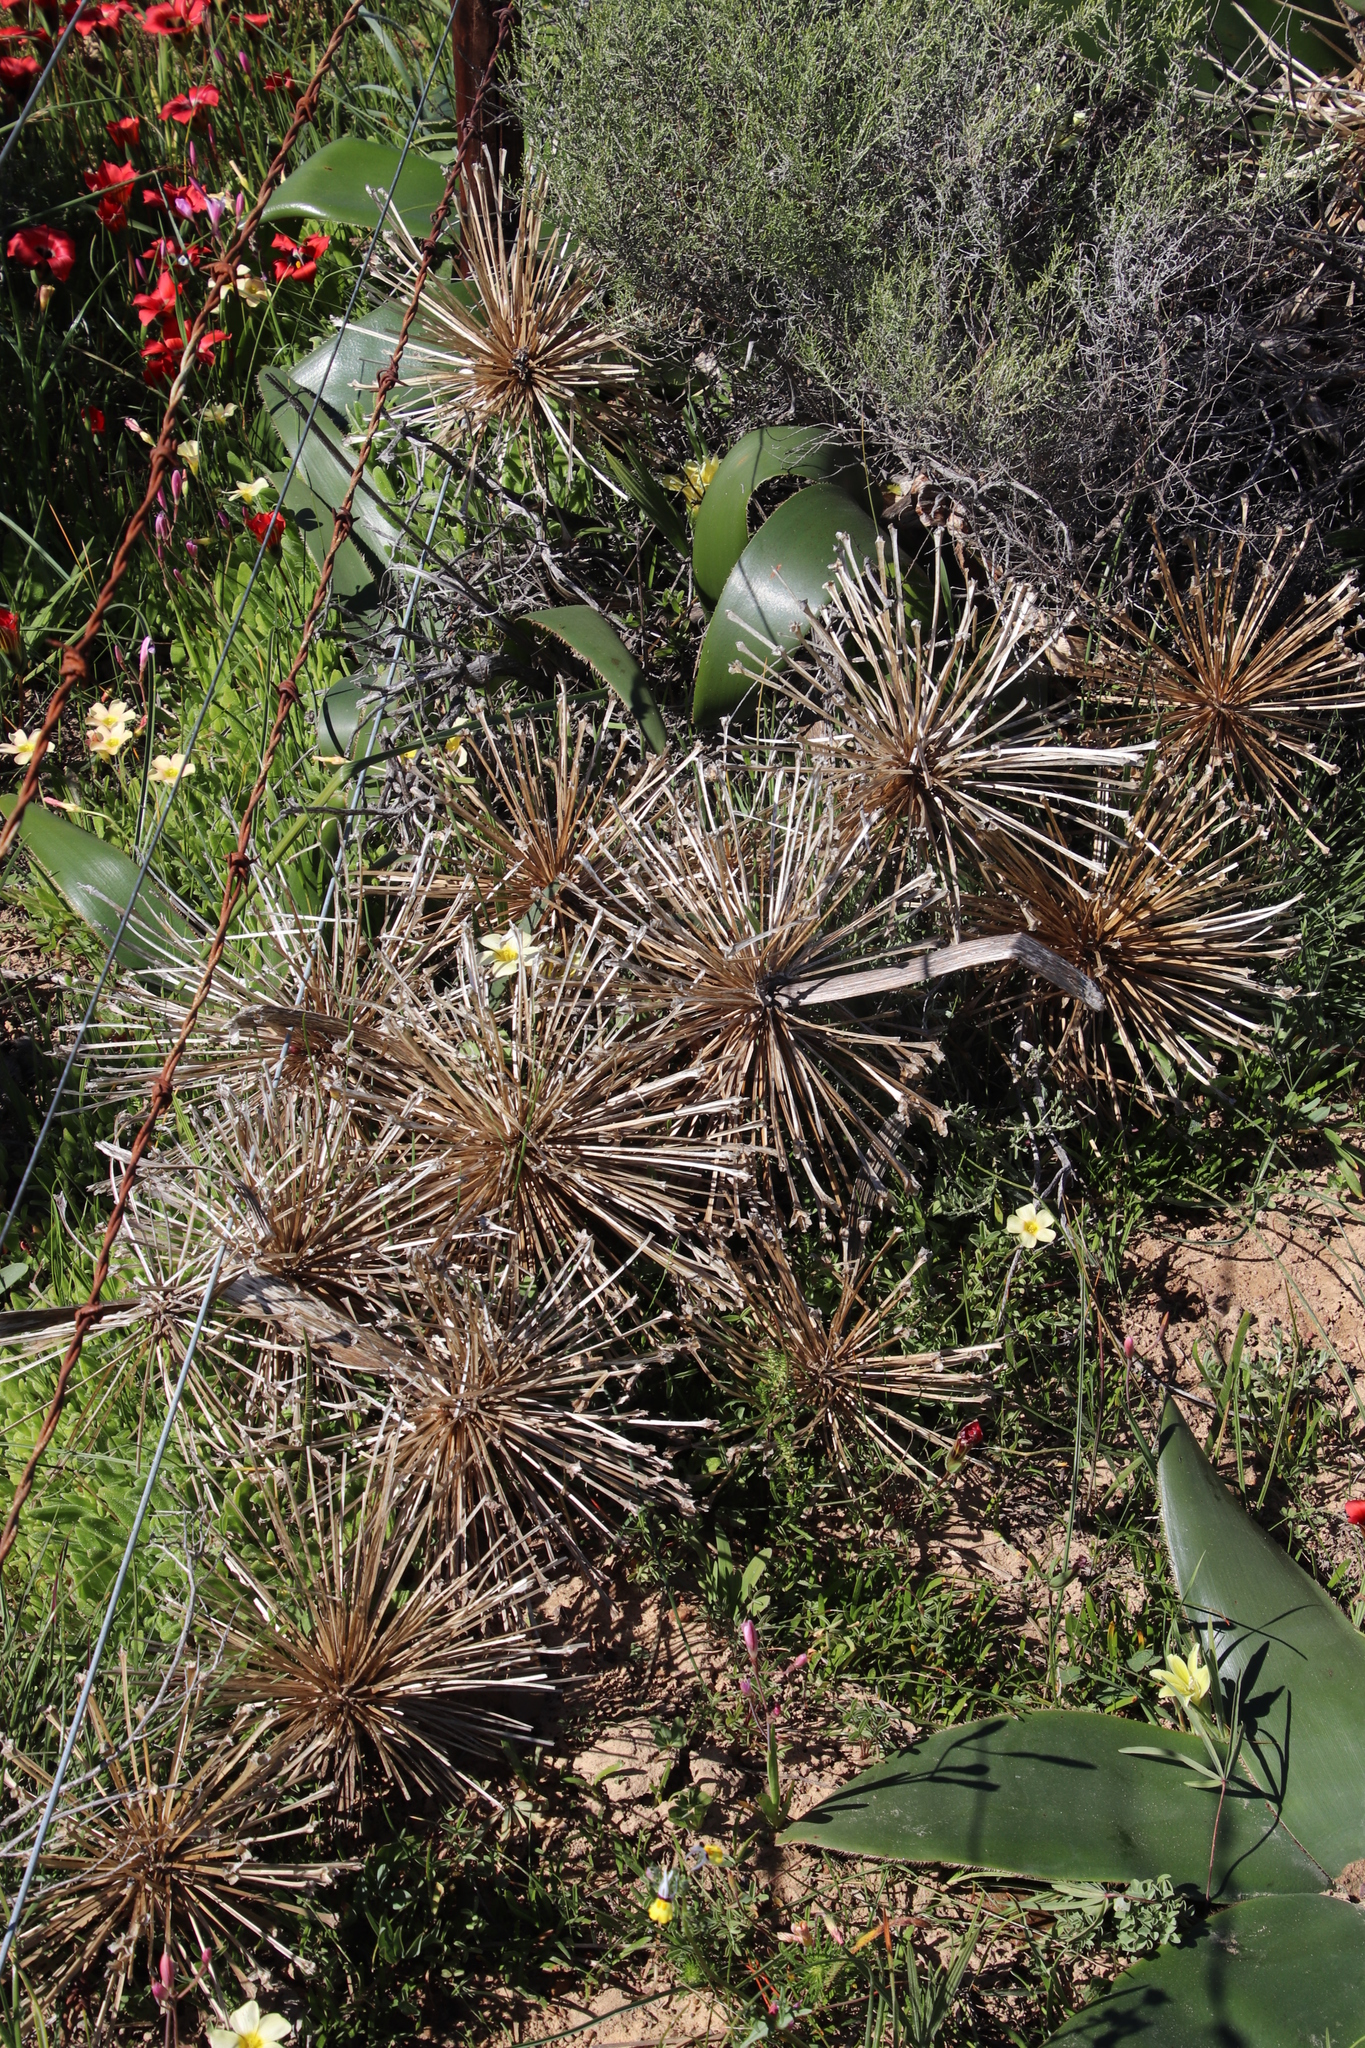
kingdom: Plantae
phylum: Tracheophyta
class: Liliopsida
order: Asparagales
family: Amaryllidaceae
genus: Crossyne
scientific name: Crossyne flava
